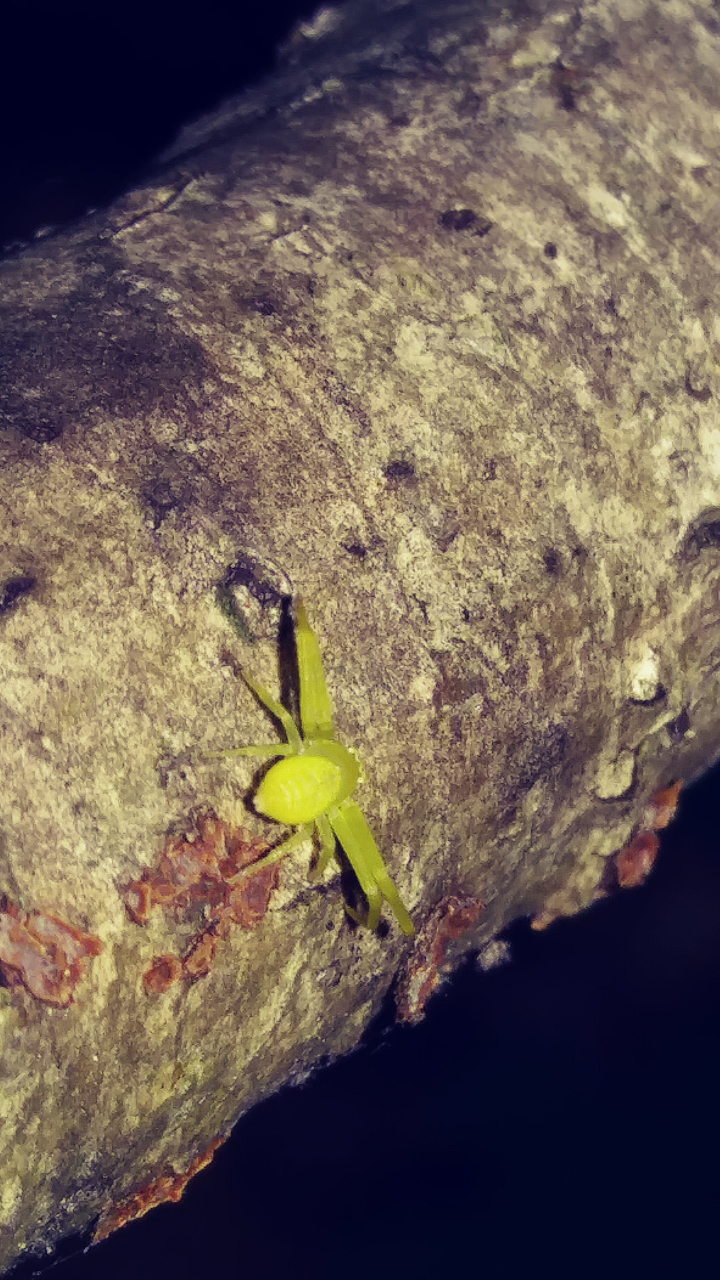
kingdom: Animalia
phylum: Arthropoda
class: Arachnida
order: Araneae
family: Thomisidae
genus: Misumessus
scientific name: Misumessus oblongus
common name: American green crab spider
